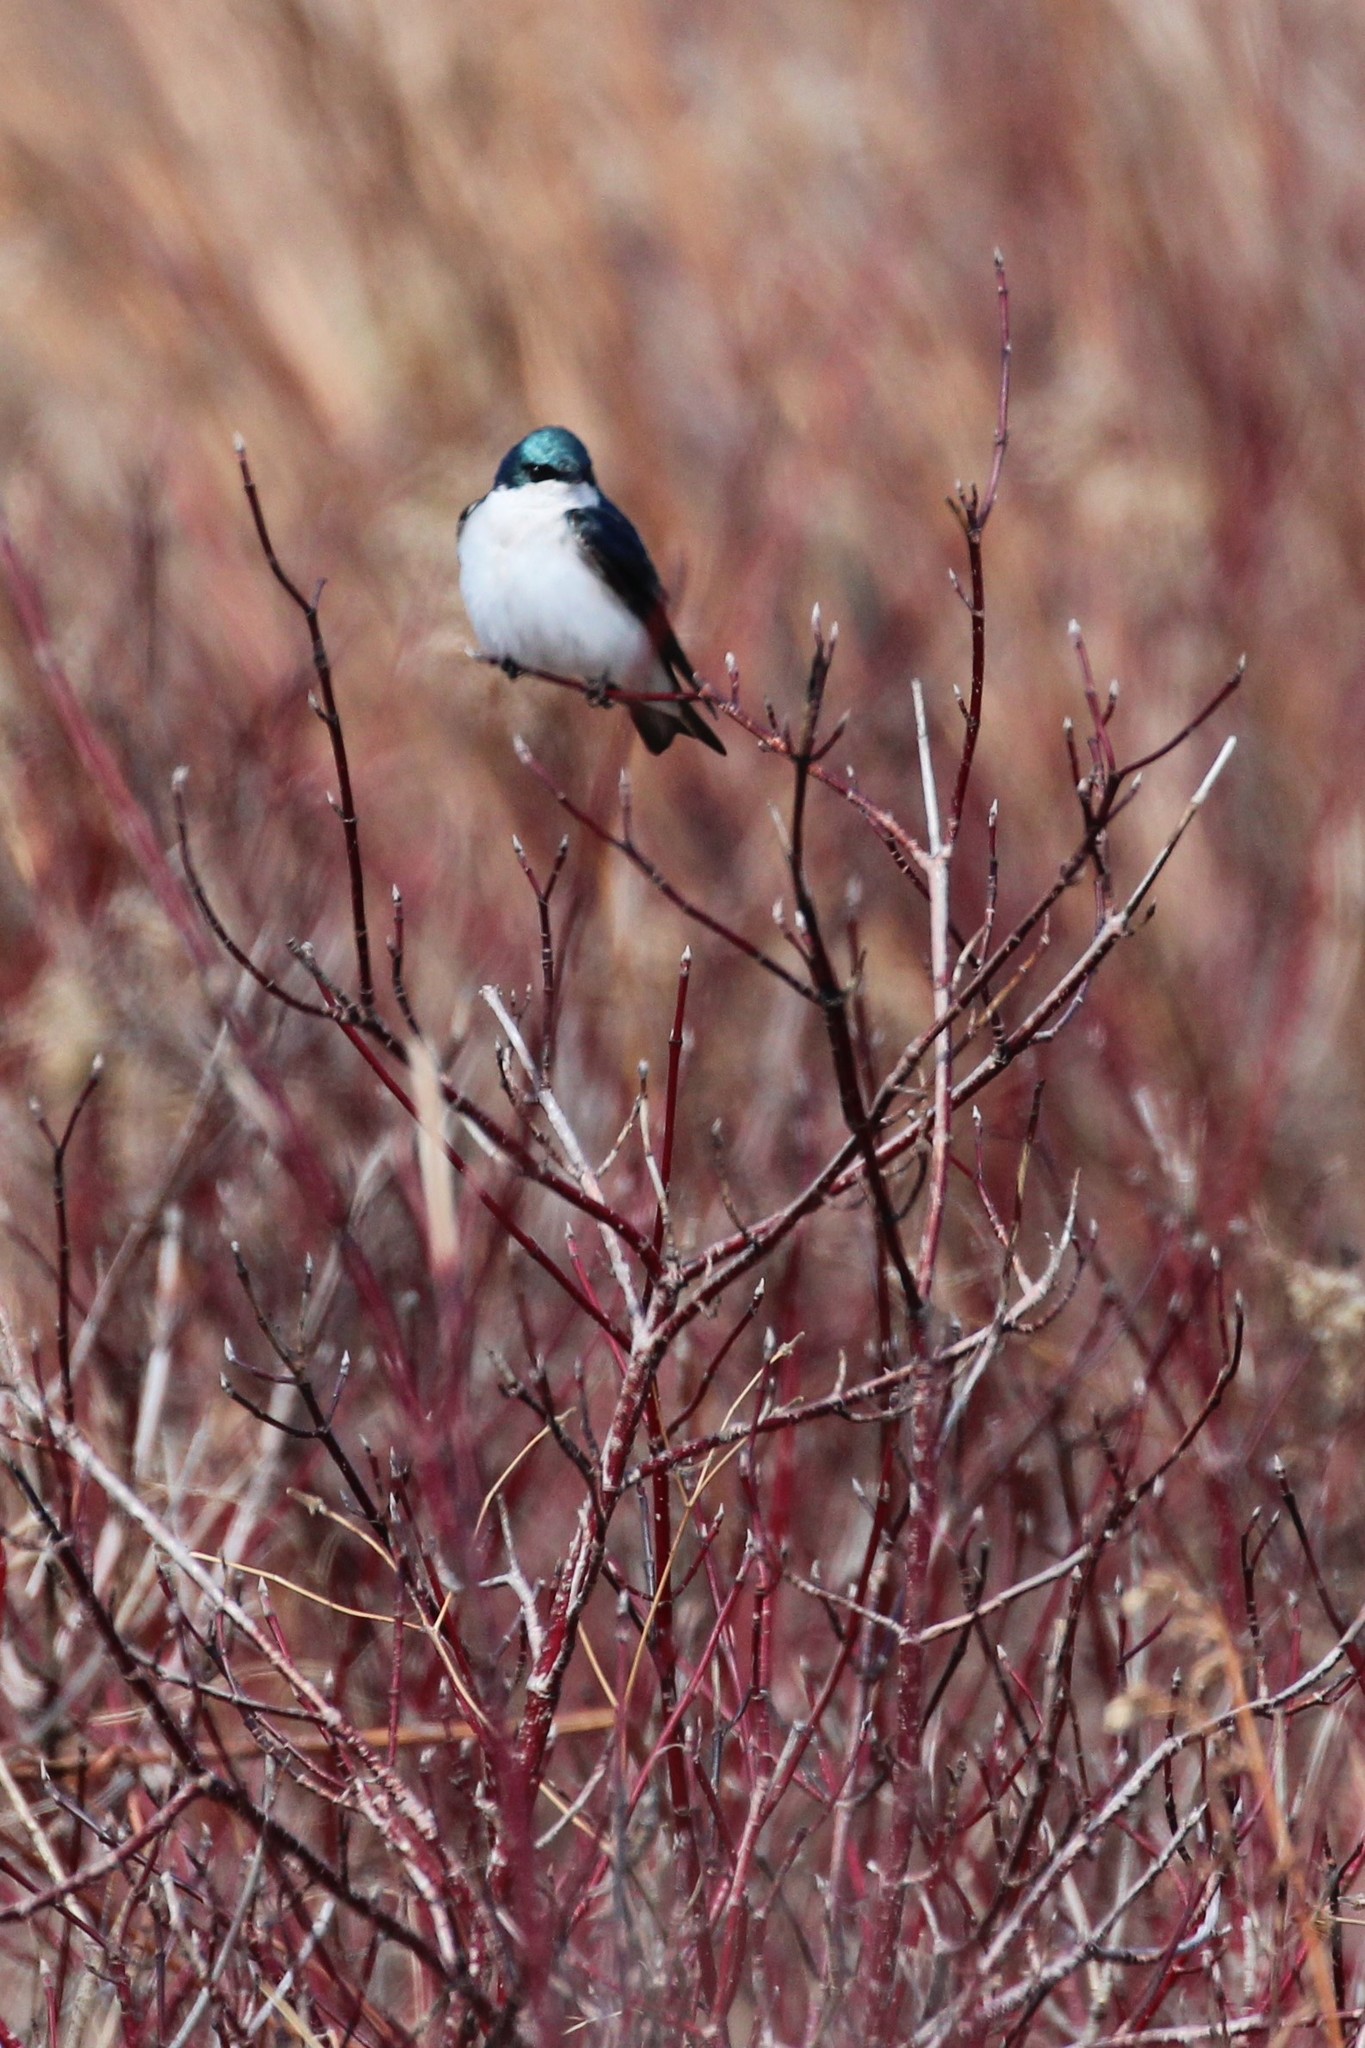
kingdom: Animalia
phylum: Chordata
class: Aves
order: Passeriformes
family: Hirundinidae
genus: Tachycineta
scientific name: Tachycineta bicolor
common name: Tree swallow
